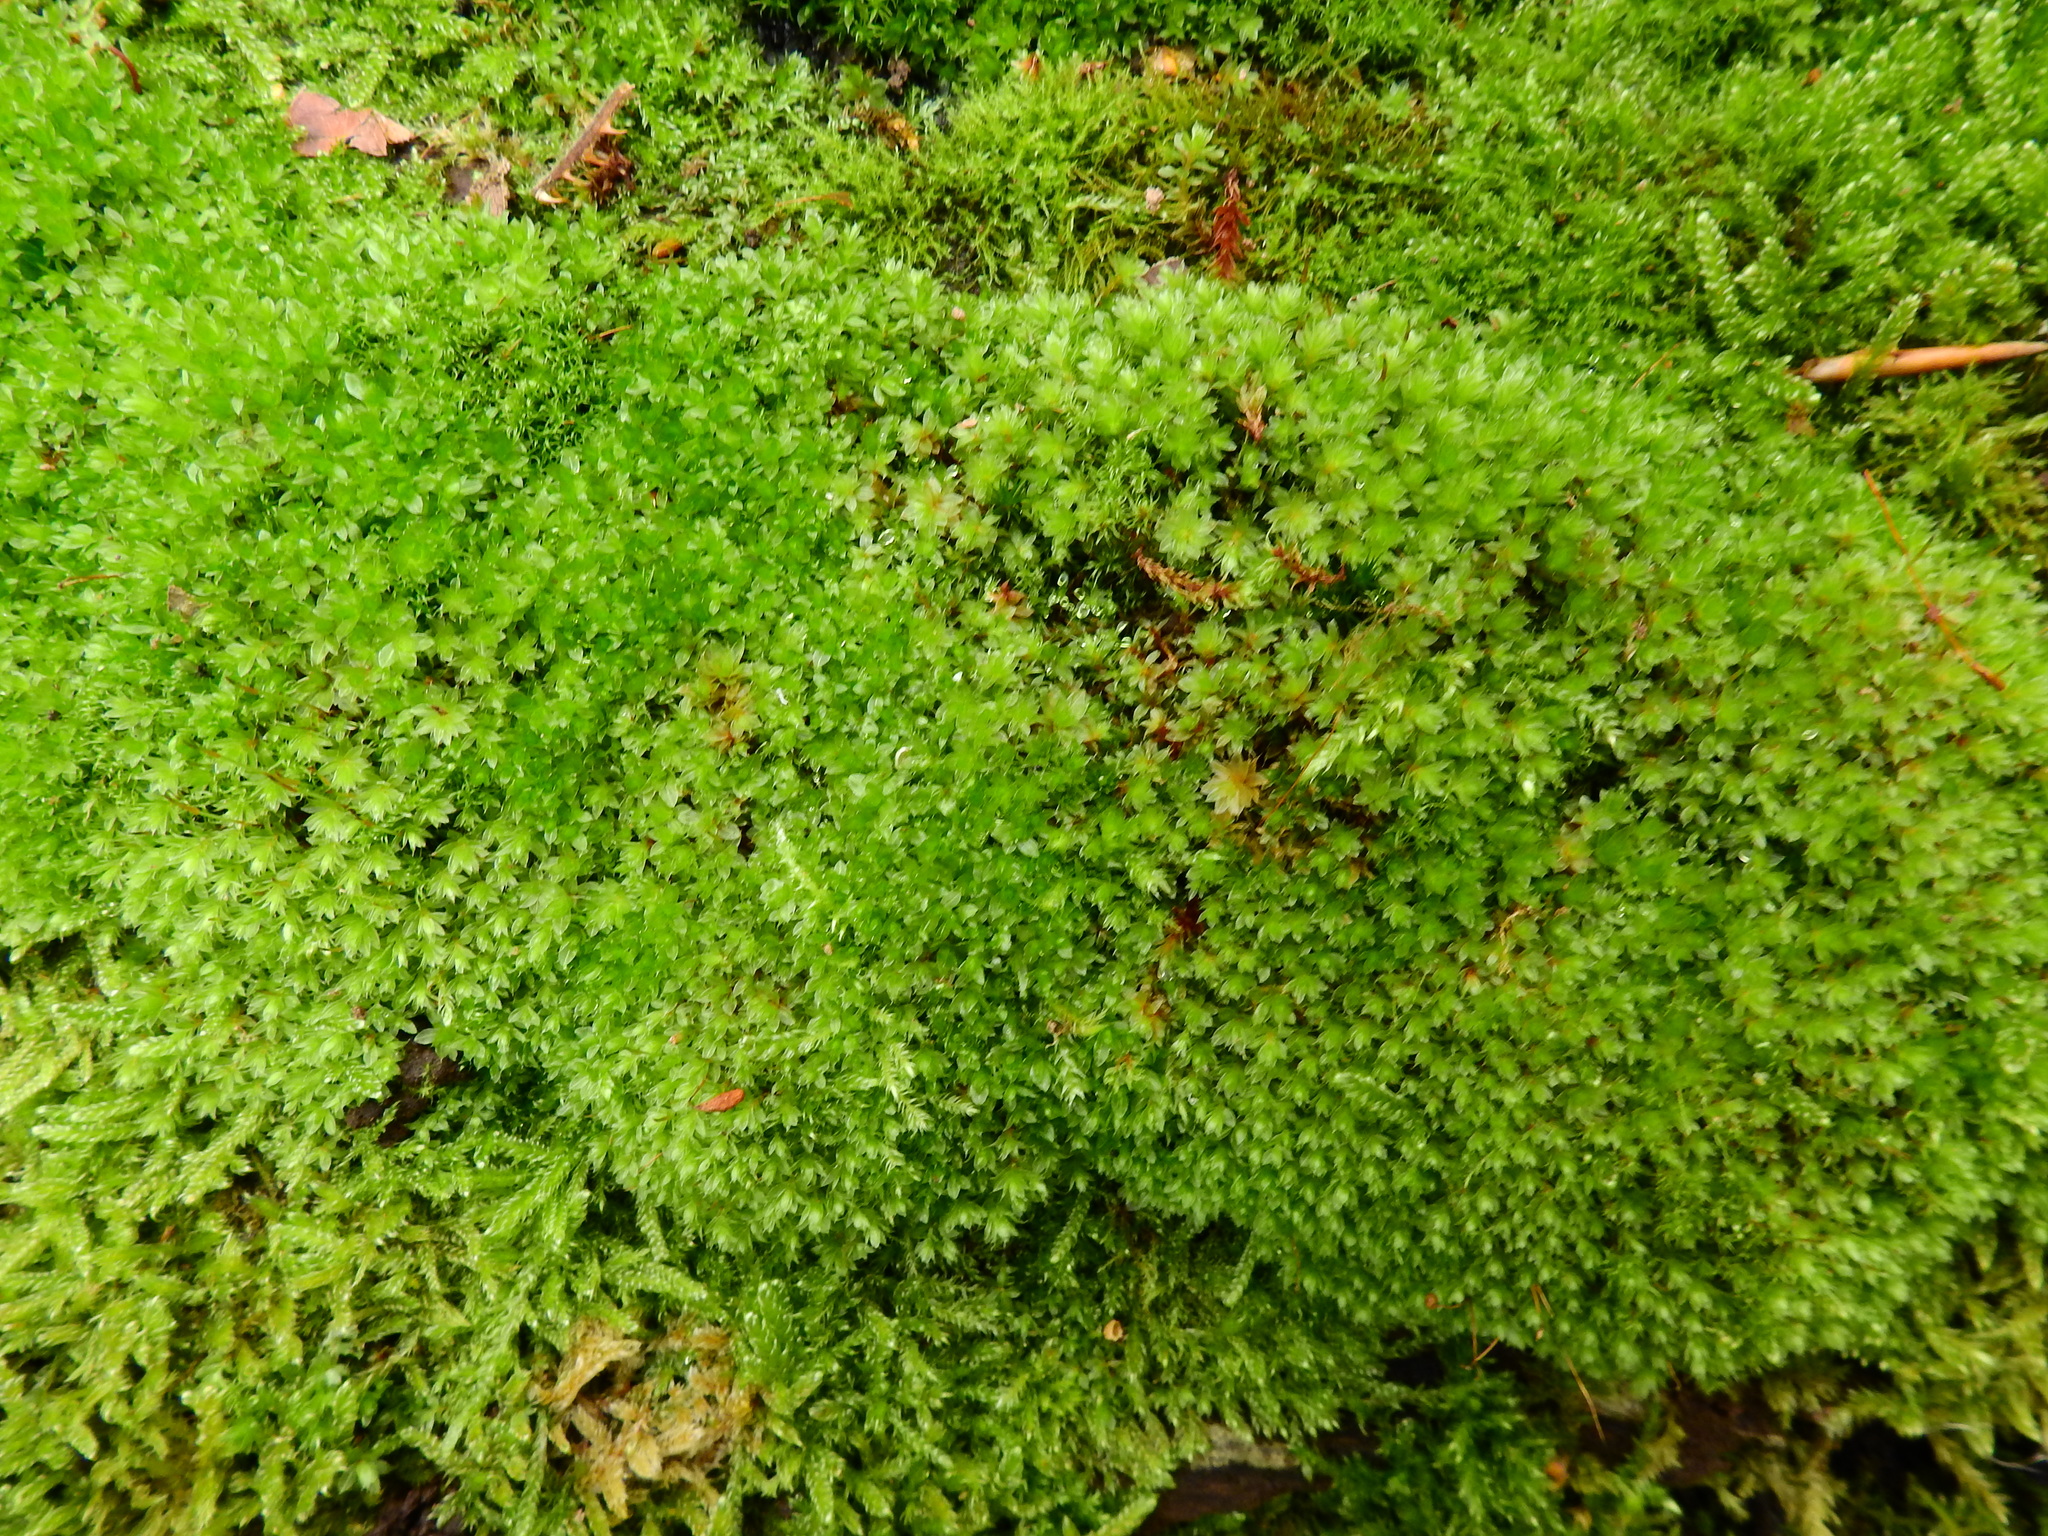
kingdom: Plantae
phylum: Bryophyta
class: Bryopsida
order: Bryales
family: Bryaceae
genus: Rosulabryum
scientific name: Rosulabryum capillare
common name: Capillary thread-moss
